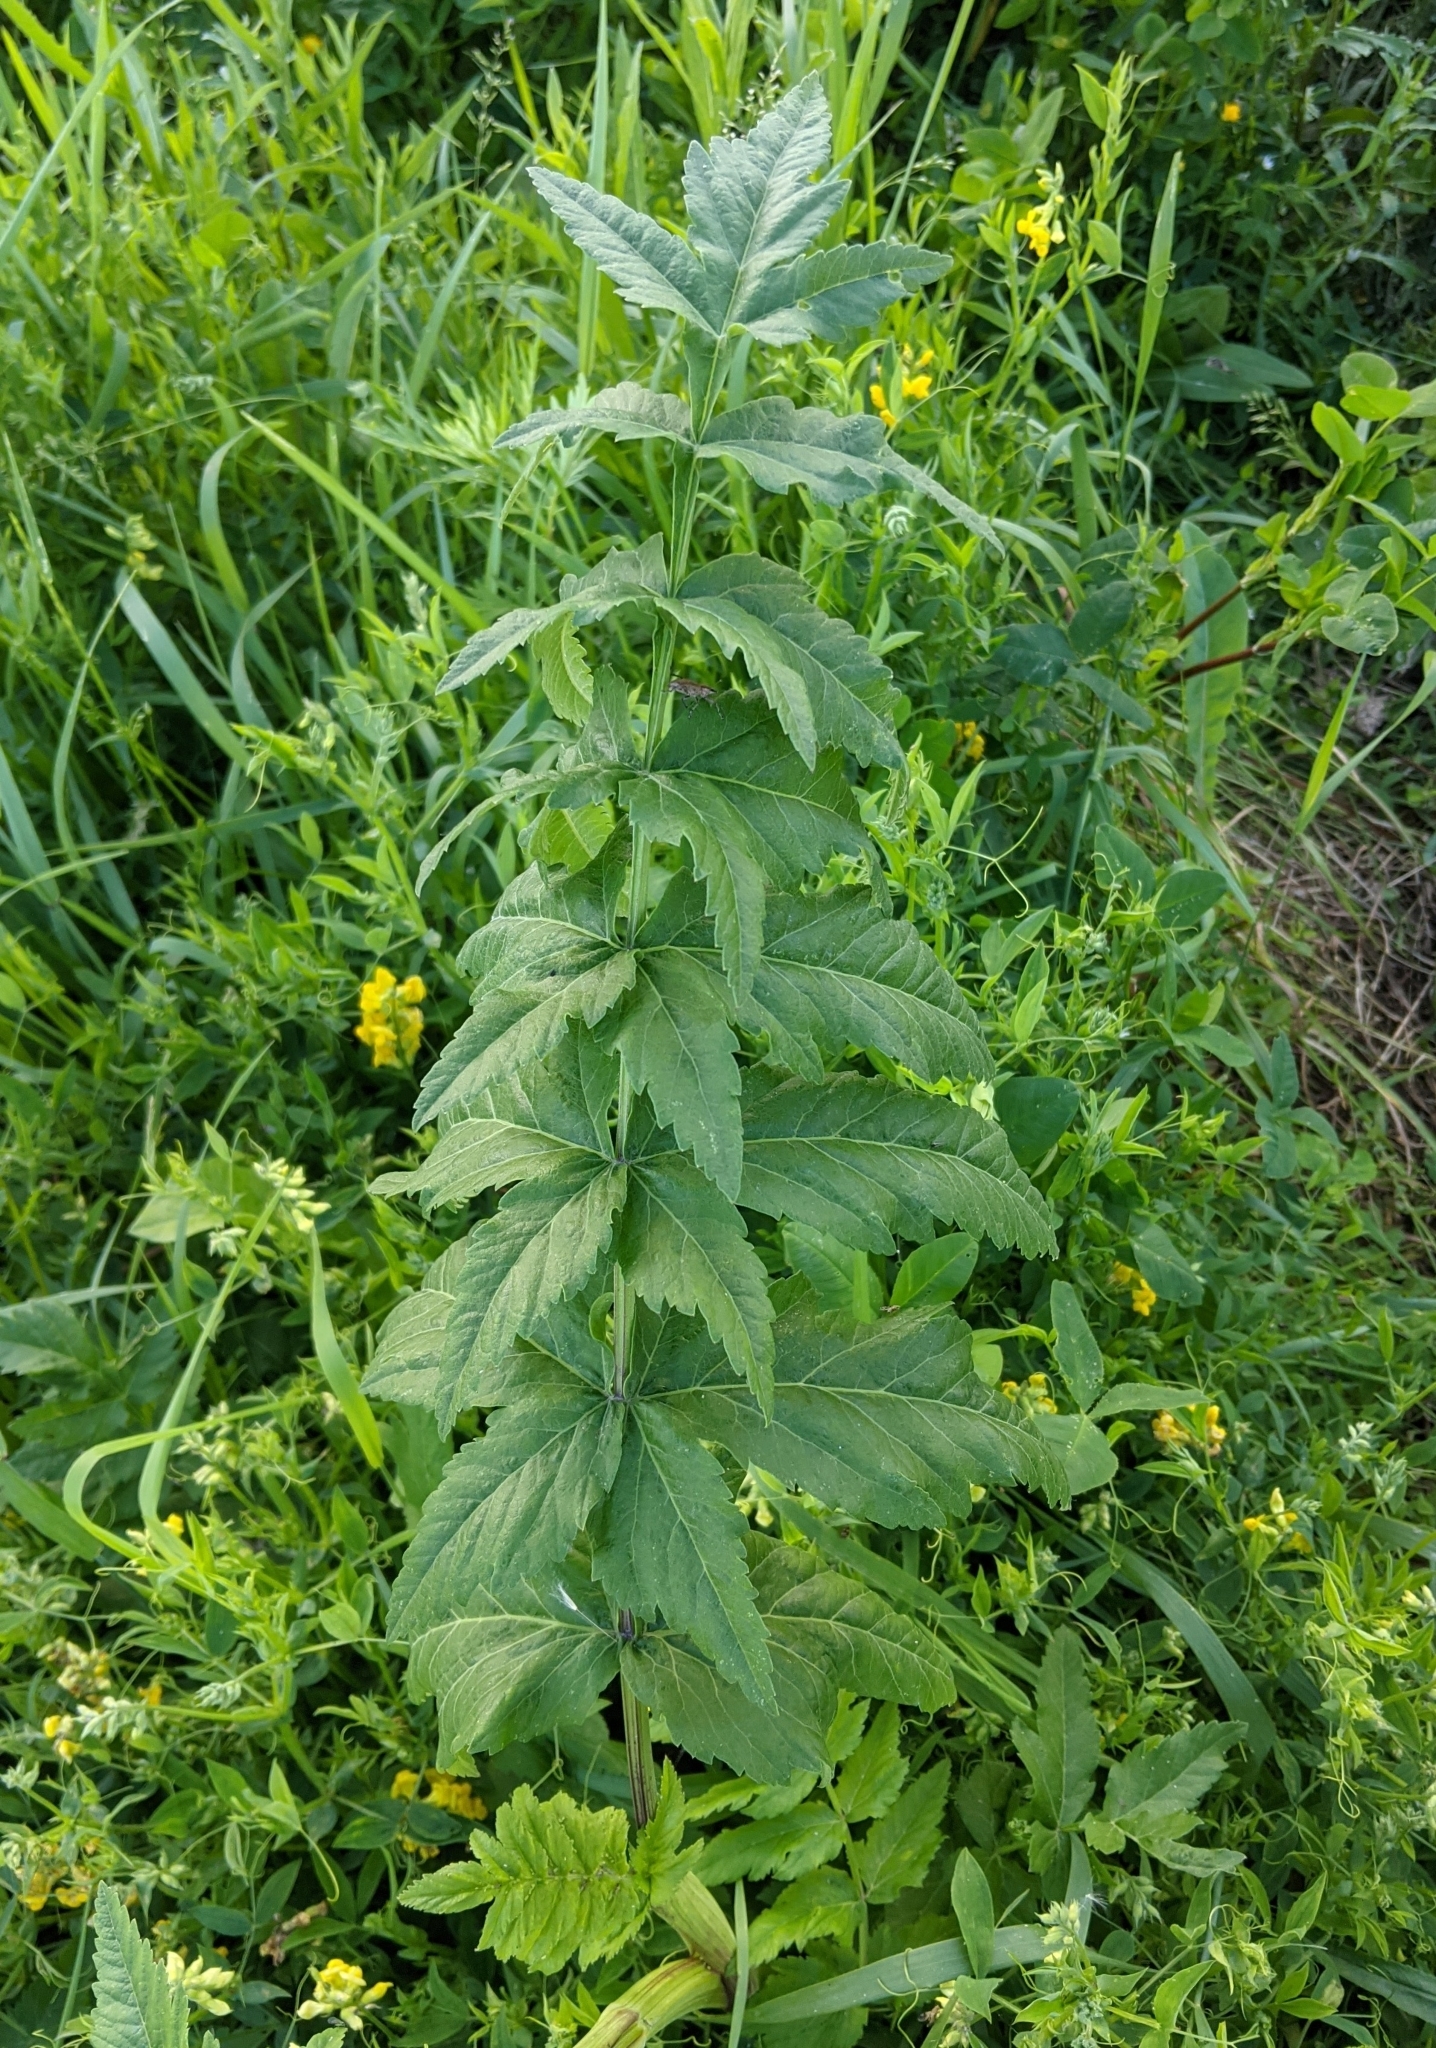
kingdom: Plantae
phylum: Tracheophyta
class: Magnoliopsida
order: Apiales
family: Apiaceae
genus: Pastinaca
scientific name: Pastinaca sativa
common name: Wild parsnip
